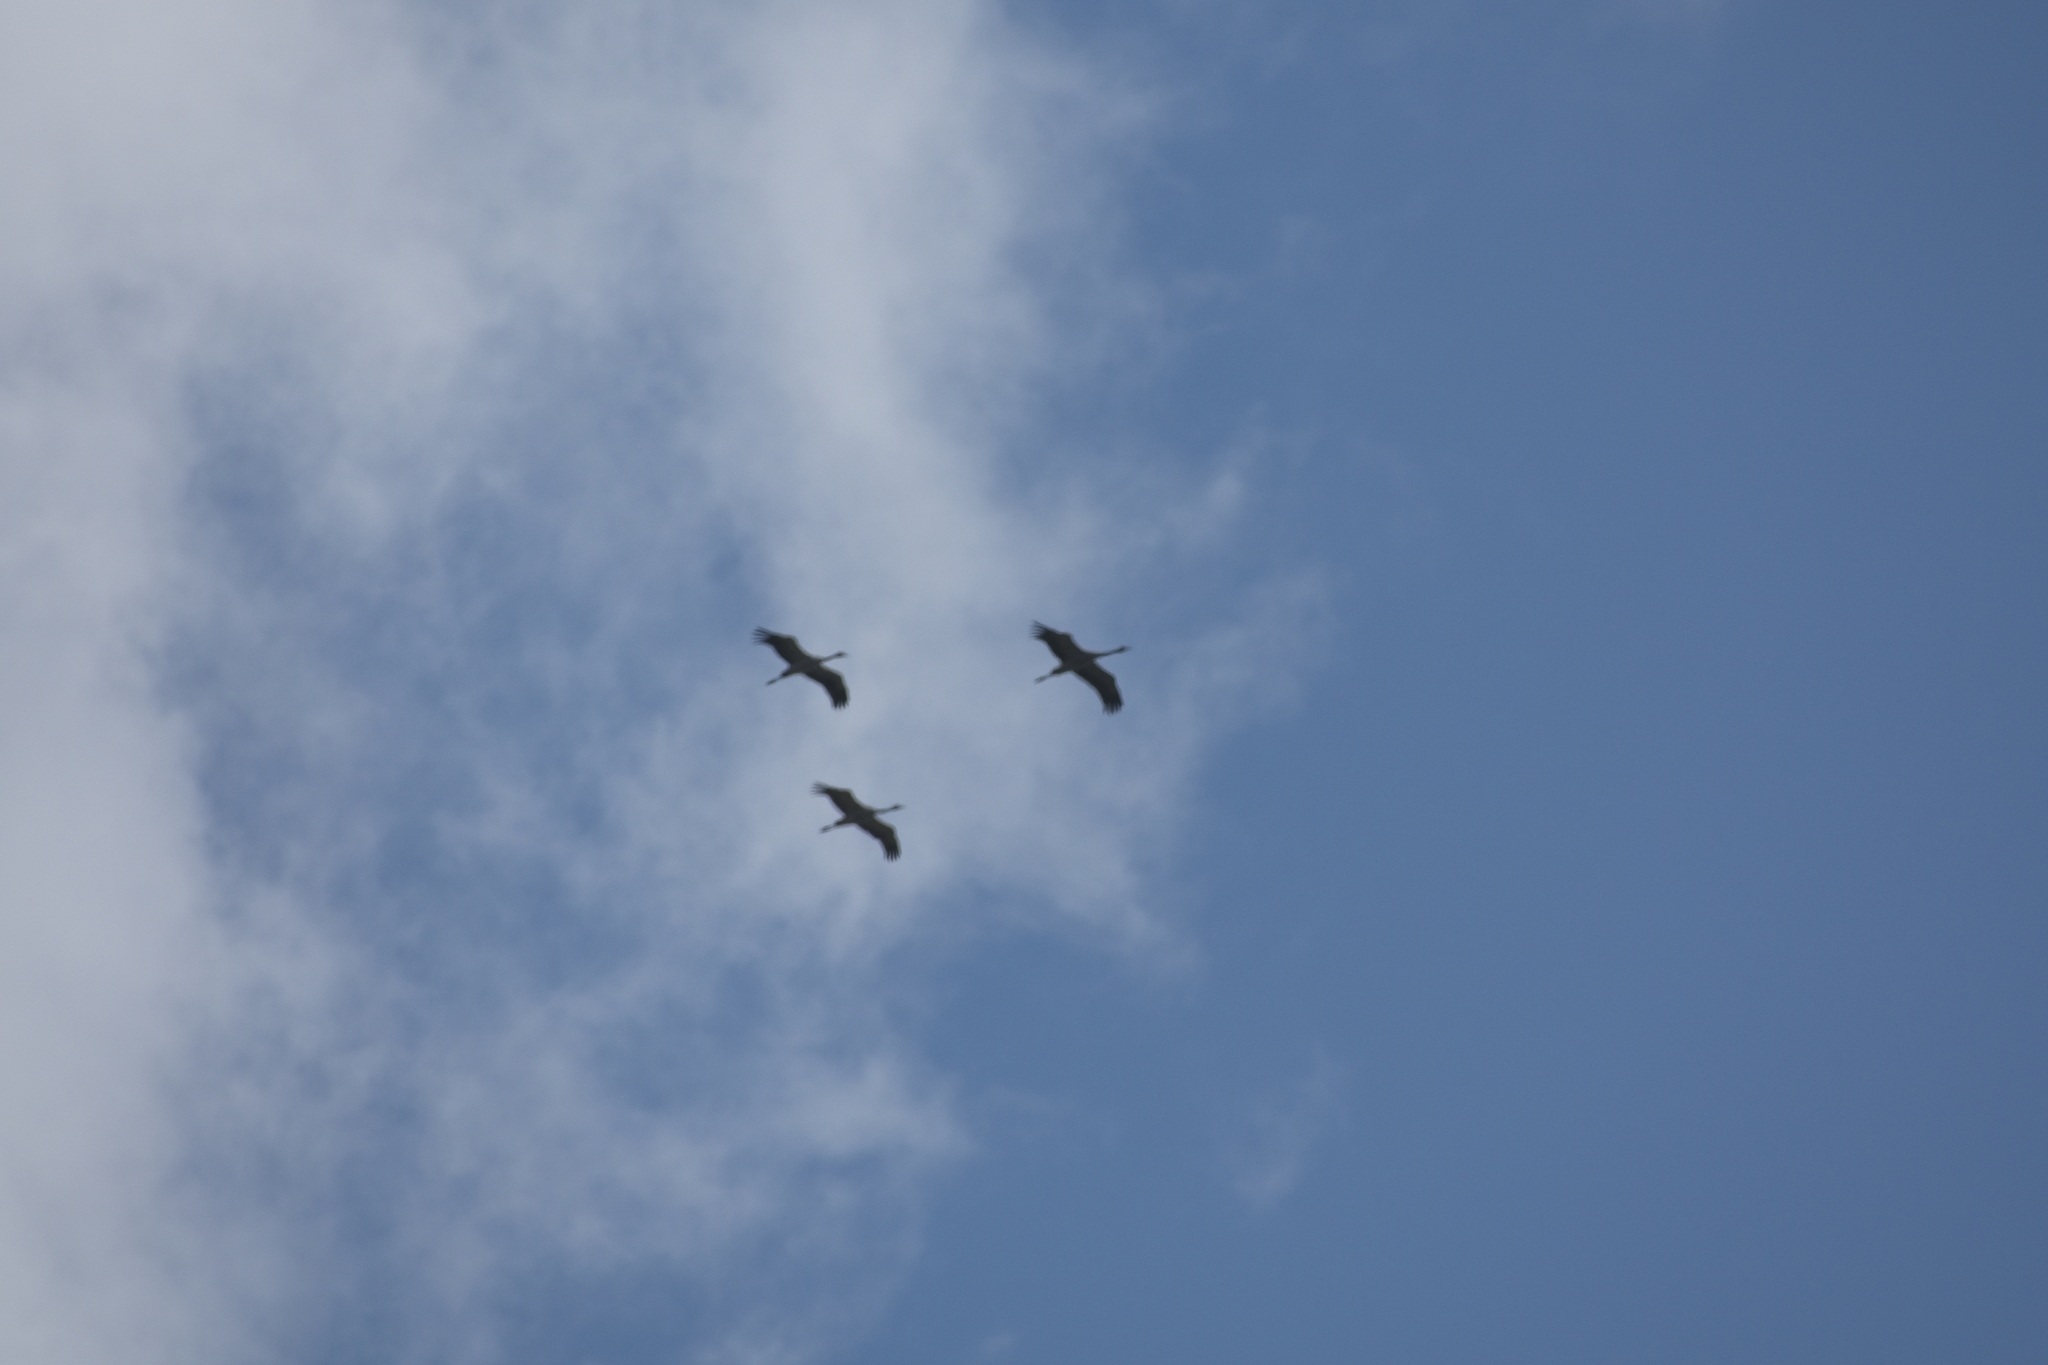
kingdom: Animalia
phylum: Chordata
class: Aves
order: Gruiformes
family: Gruidae
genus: Grus
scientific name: Grus grus
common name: Common crane
